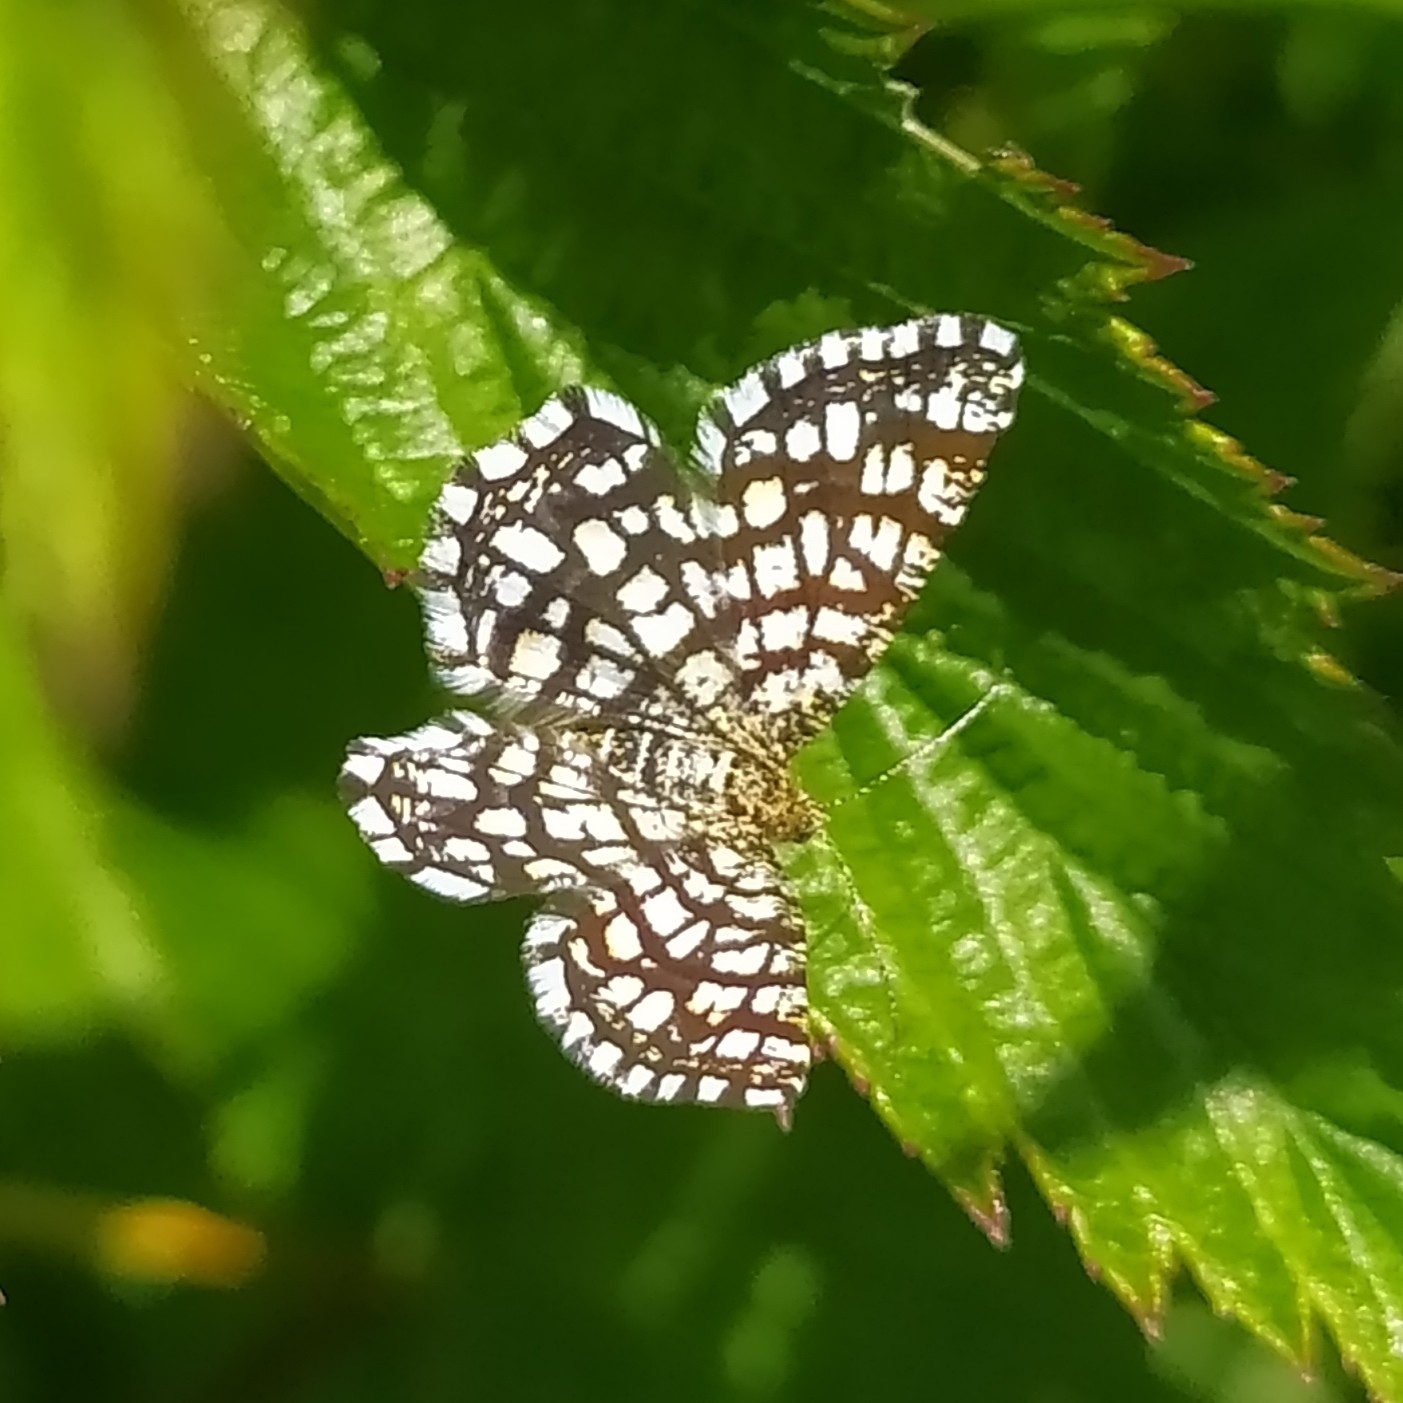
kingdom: Animalia
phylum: Arthropoda
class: Insecta
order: Lepidoptera
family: Geometridae
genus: Chiasmia
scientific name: Chiasmia clathrata
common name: Latticed heath
